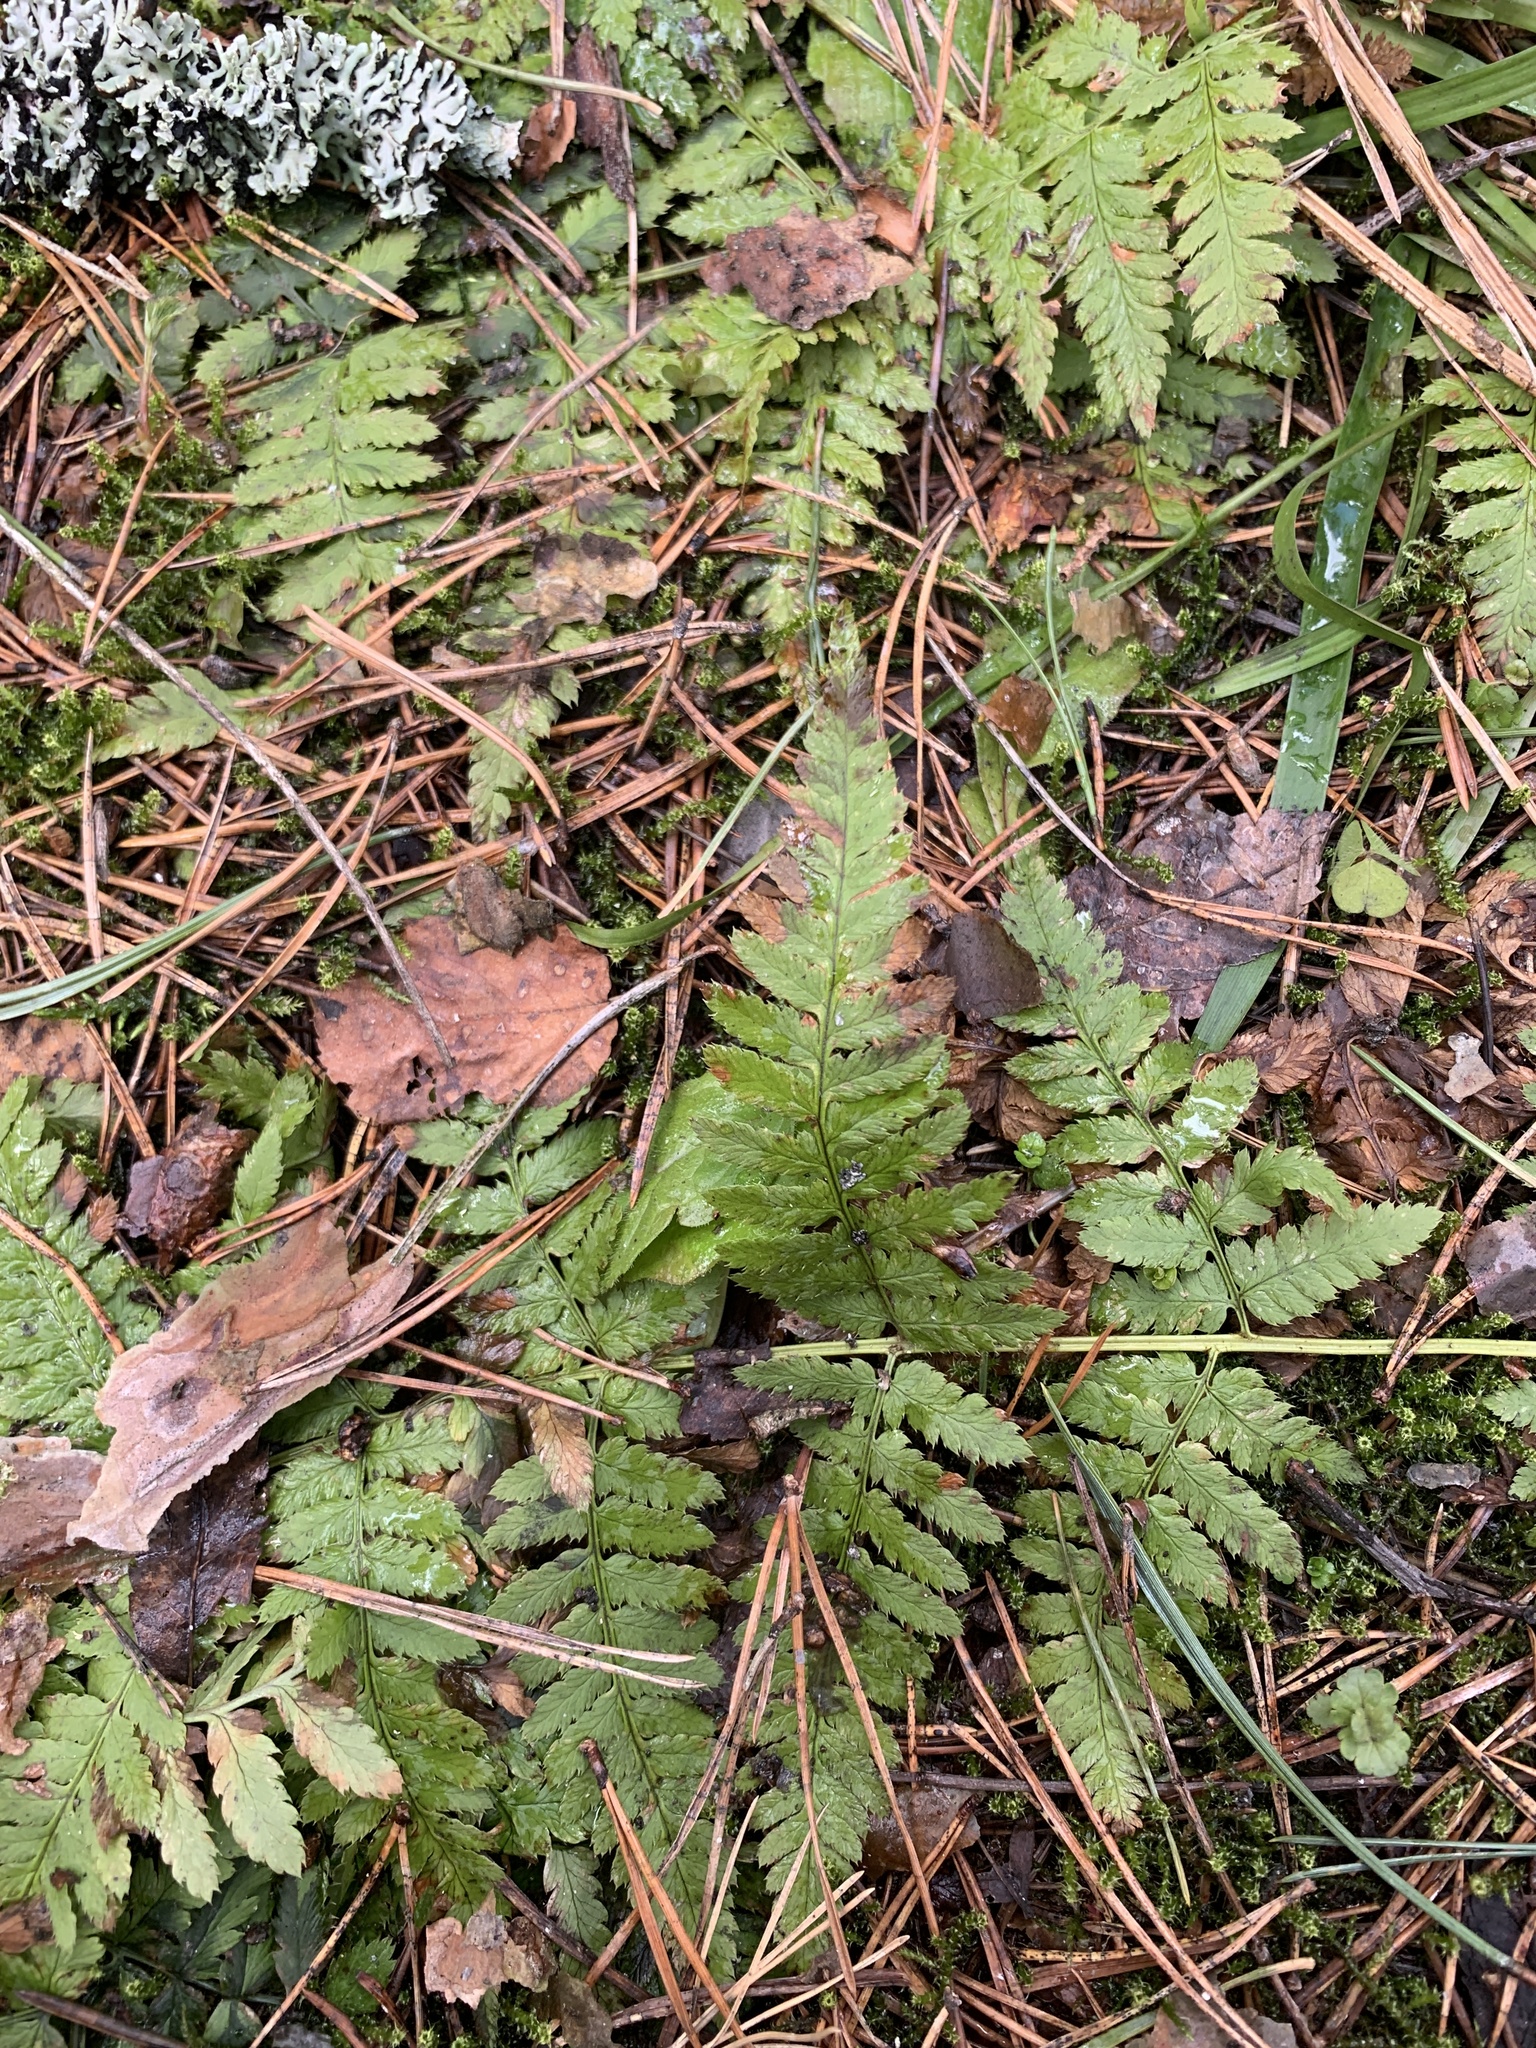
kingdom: Plantae
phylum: Tracheophyta
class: Polypodiopsida
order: Polypodiales
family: Dryopteridaceae
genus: Dryopteris
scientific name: Dryopteris carthusiana
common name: Narrow buckler-fern
